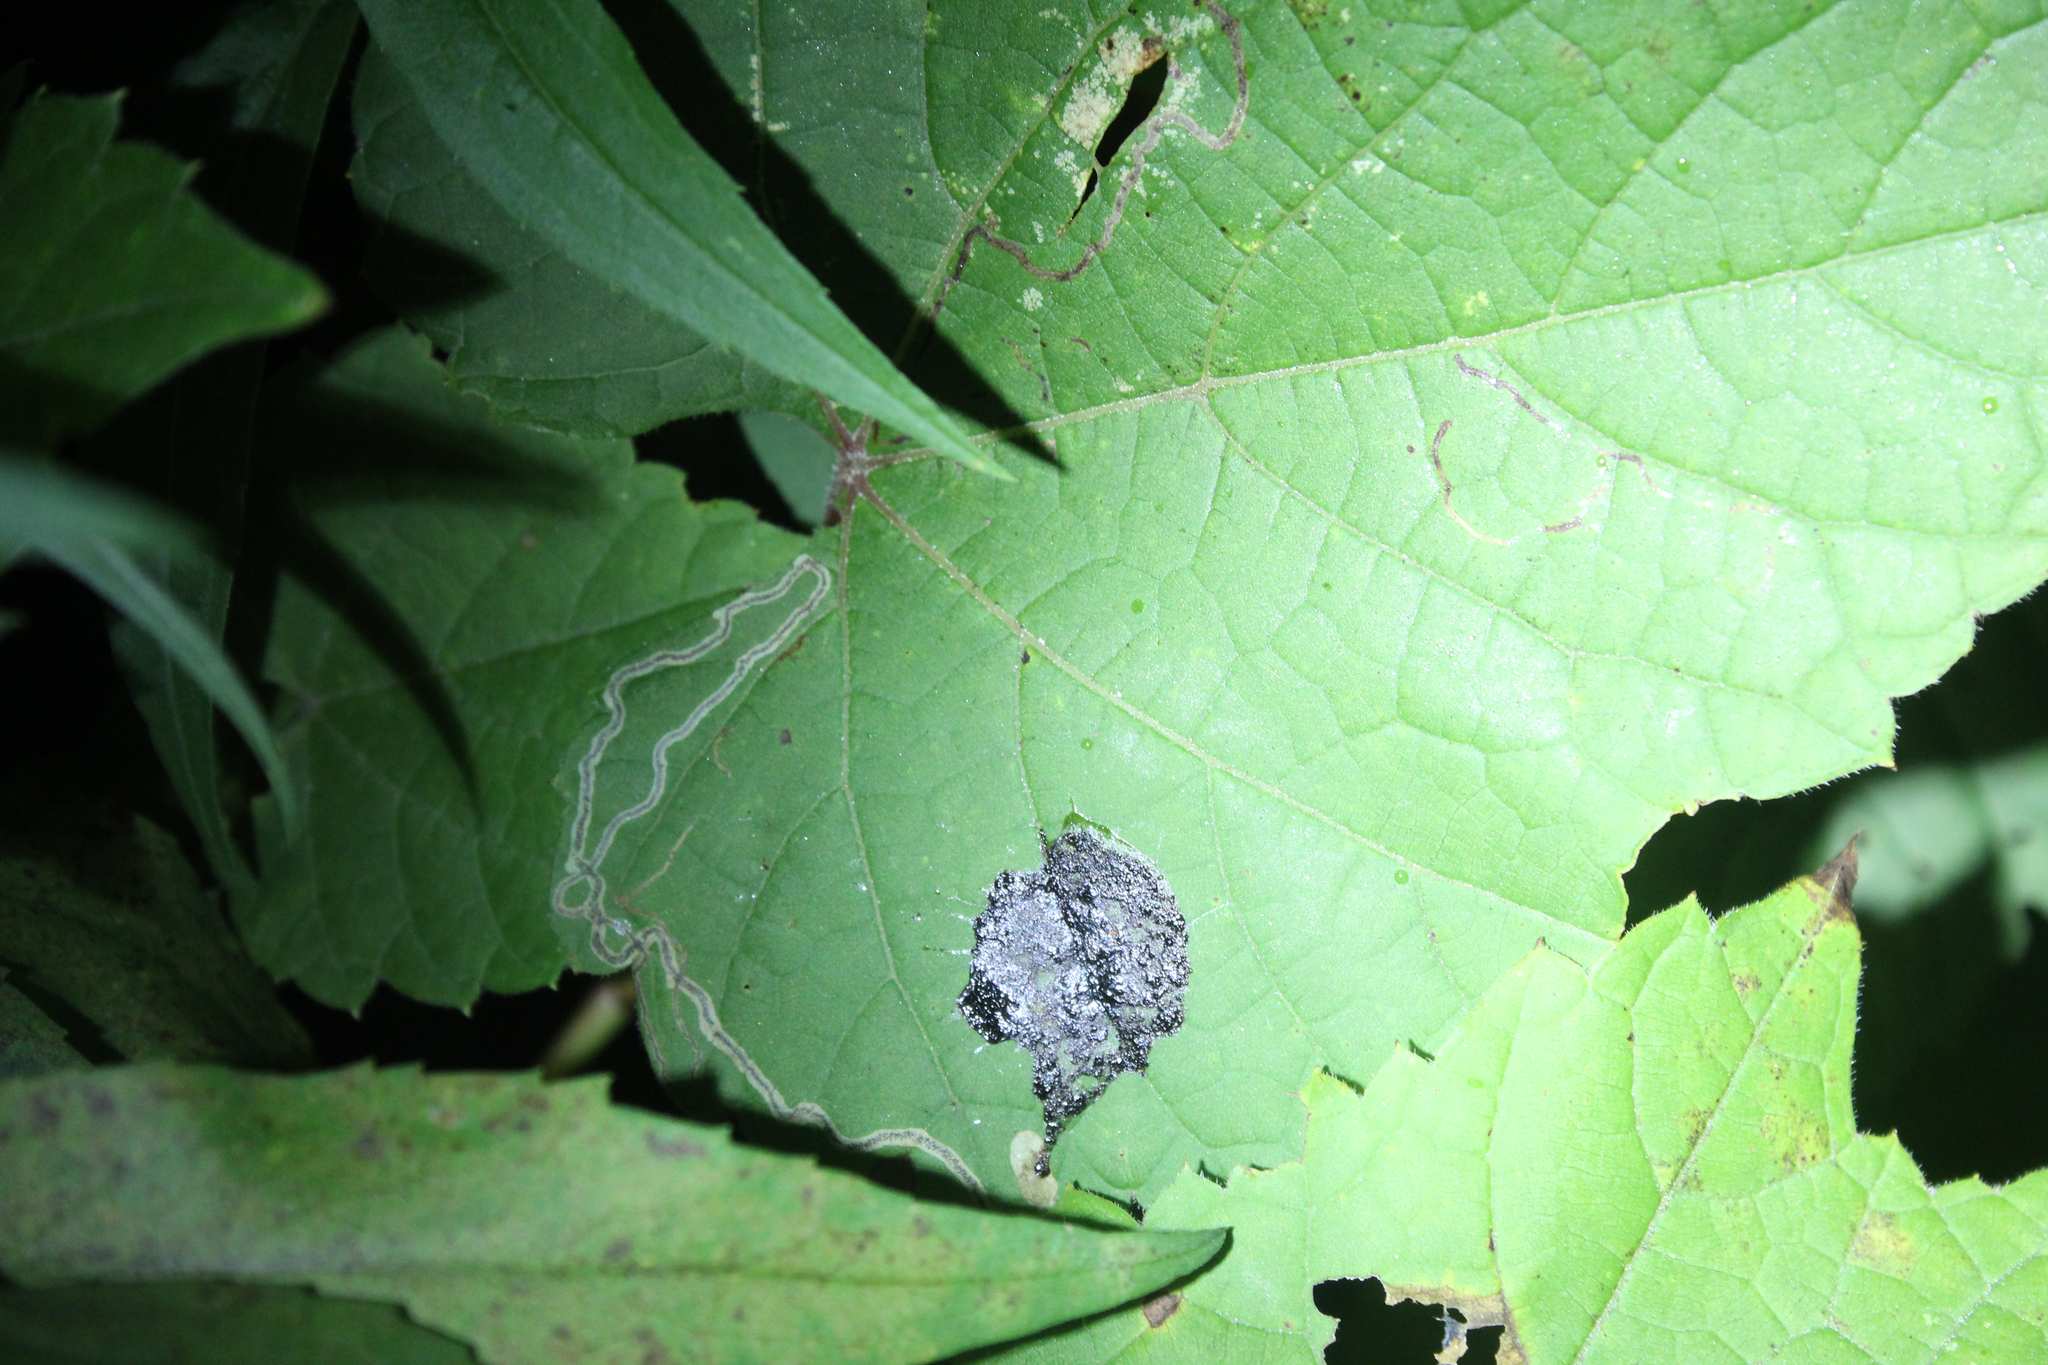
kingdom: Animalia
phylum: Arthropoda
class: Insecta
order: Lepidoptera
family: Gracillariidae
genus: Phyllocnistis
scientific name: Phyllocnistis vitifoliella
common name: Grape leaf-miner moth
